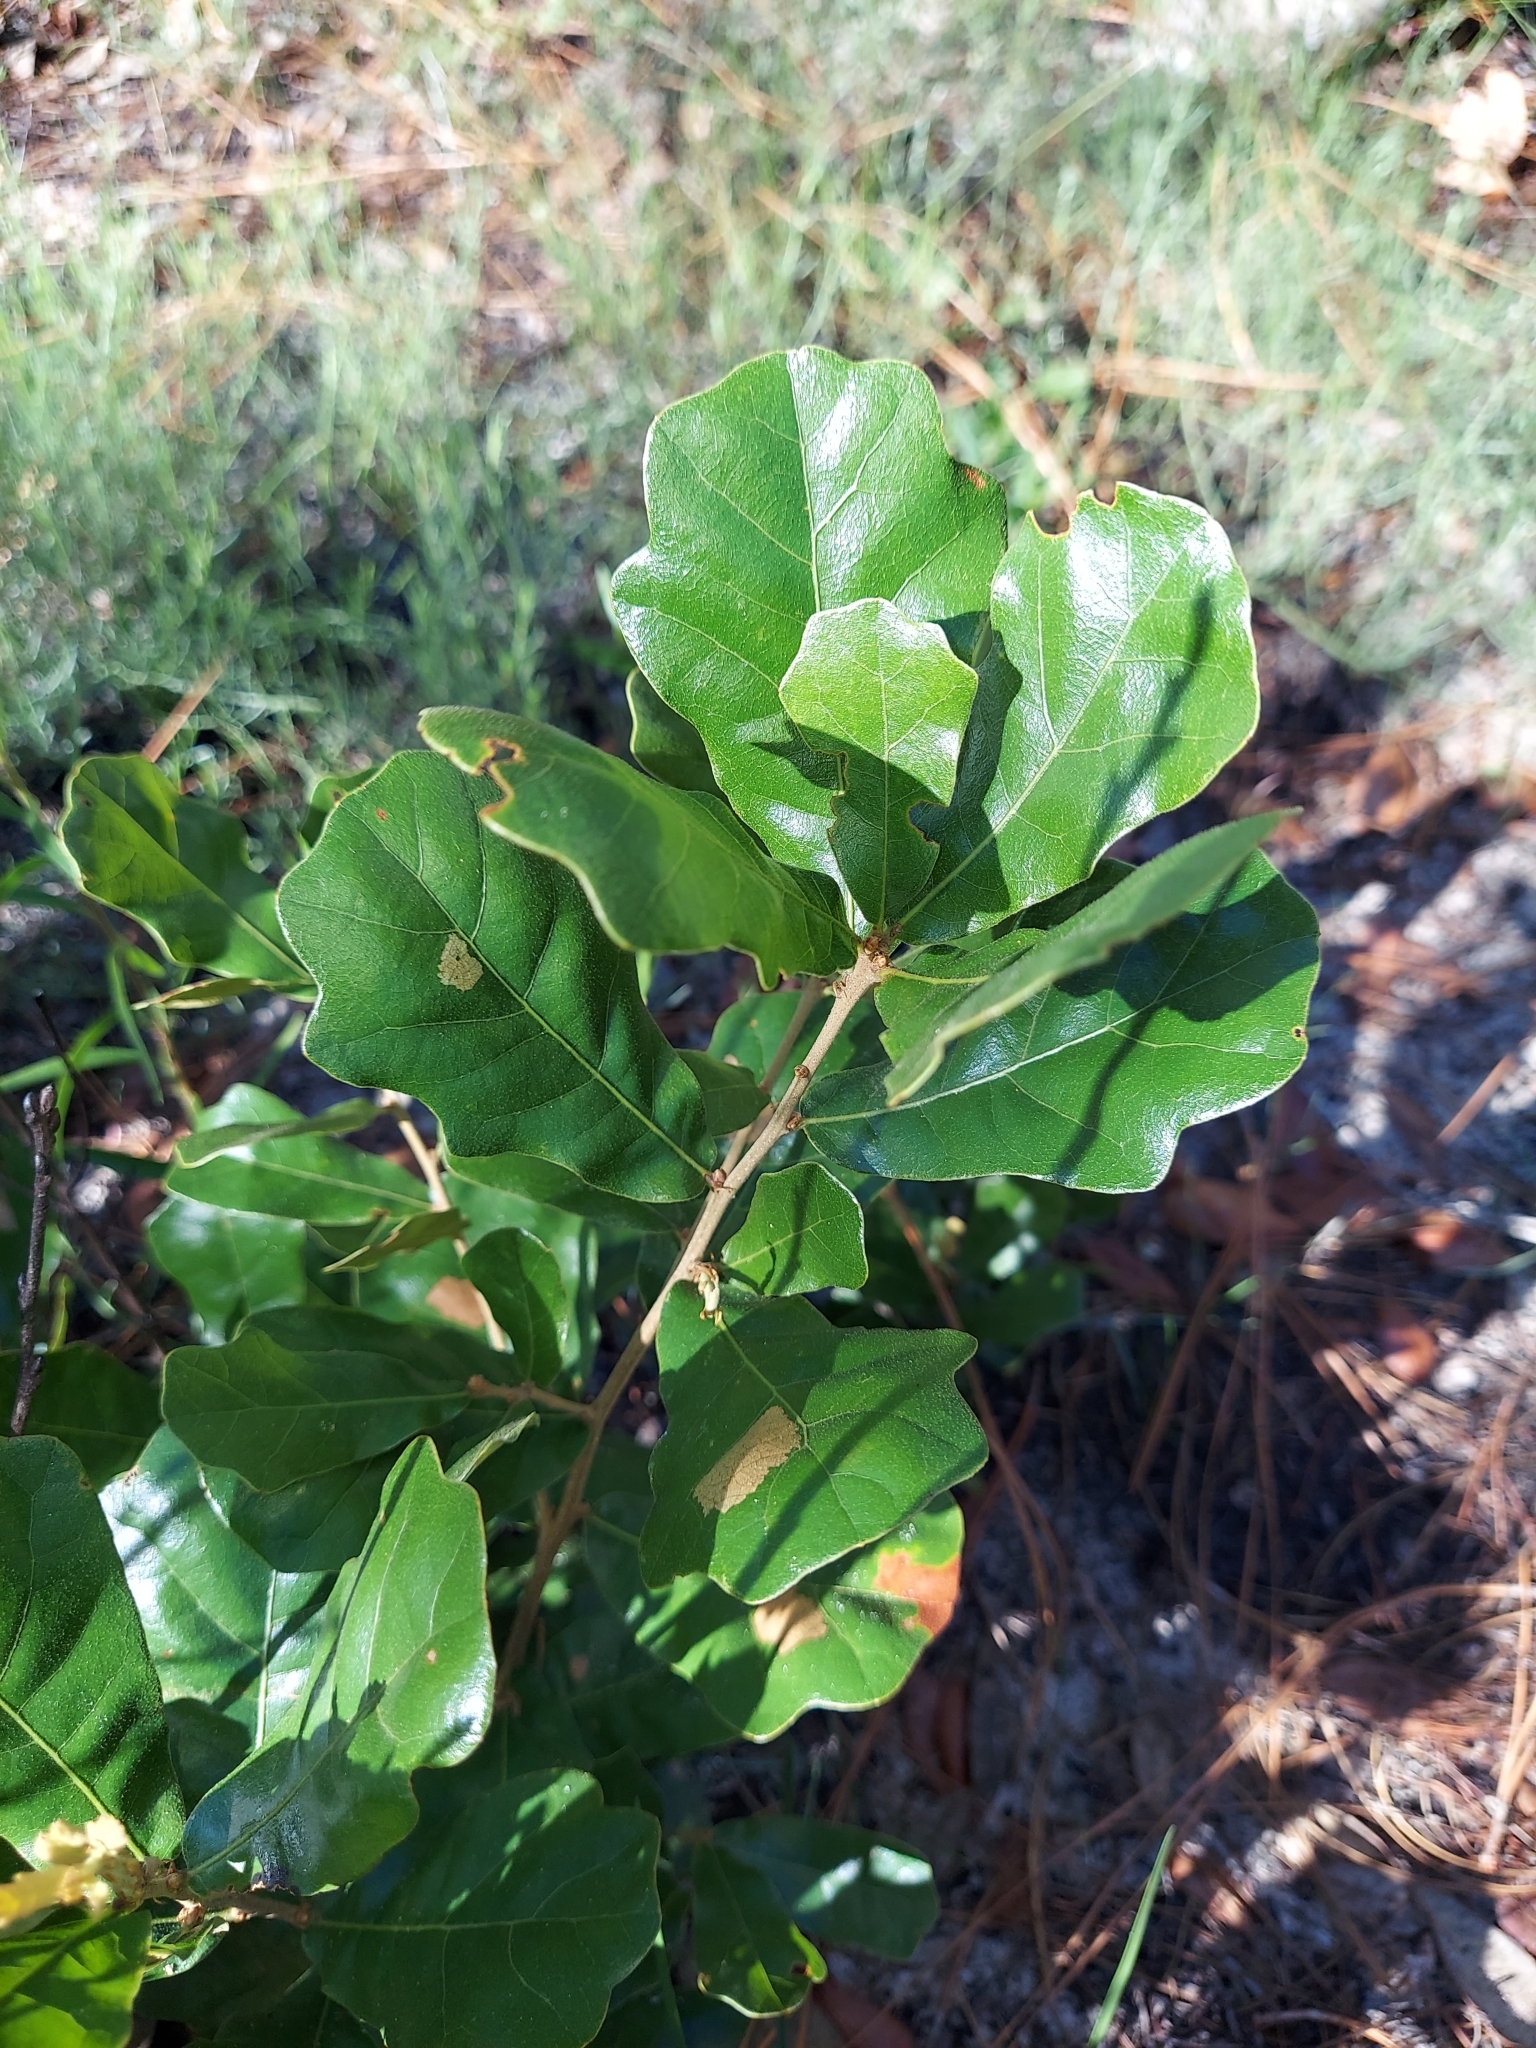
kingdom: Plantae
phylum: Tracheophyta
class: Magnoliopsida
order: Fagales
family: Fagaceae
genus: Quercus
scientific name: Quercus chapmanii
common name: Chapman oak
